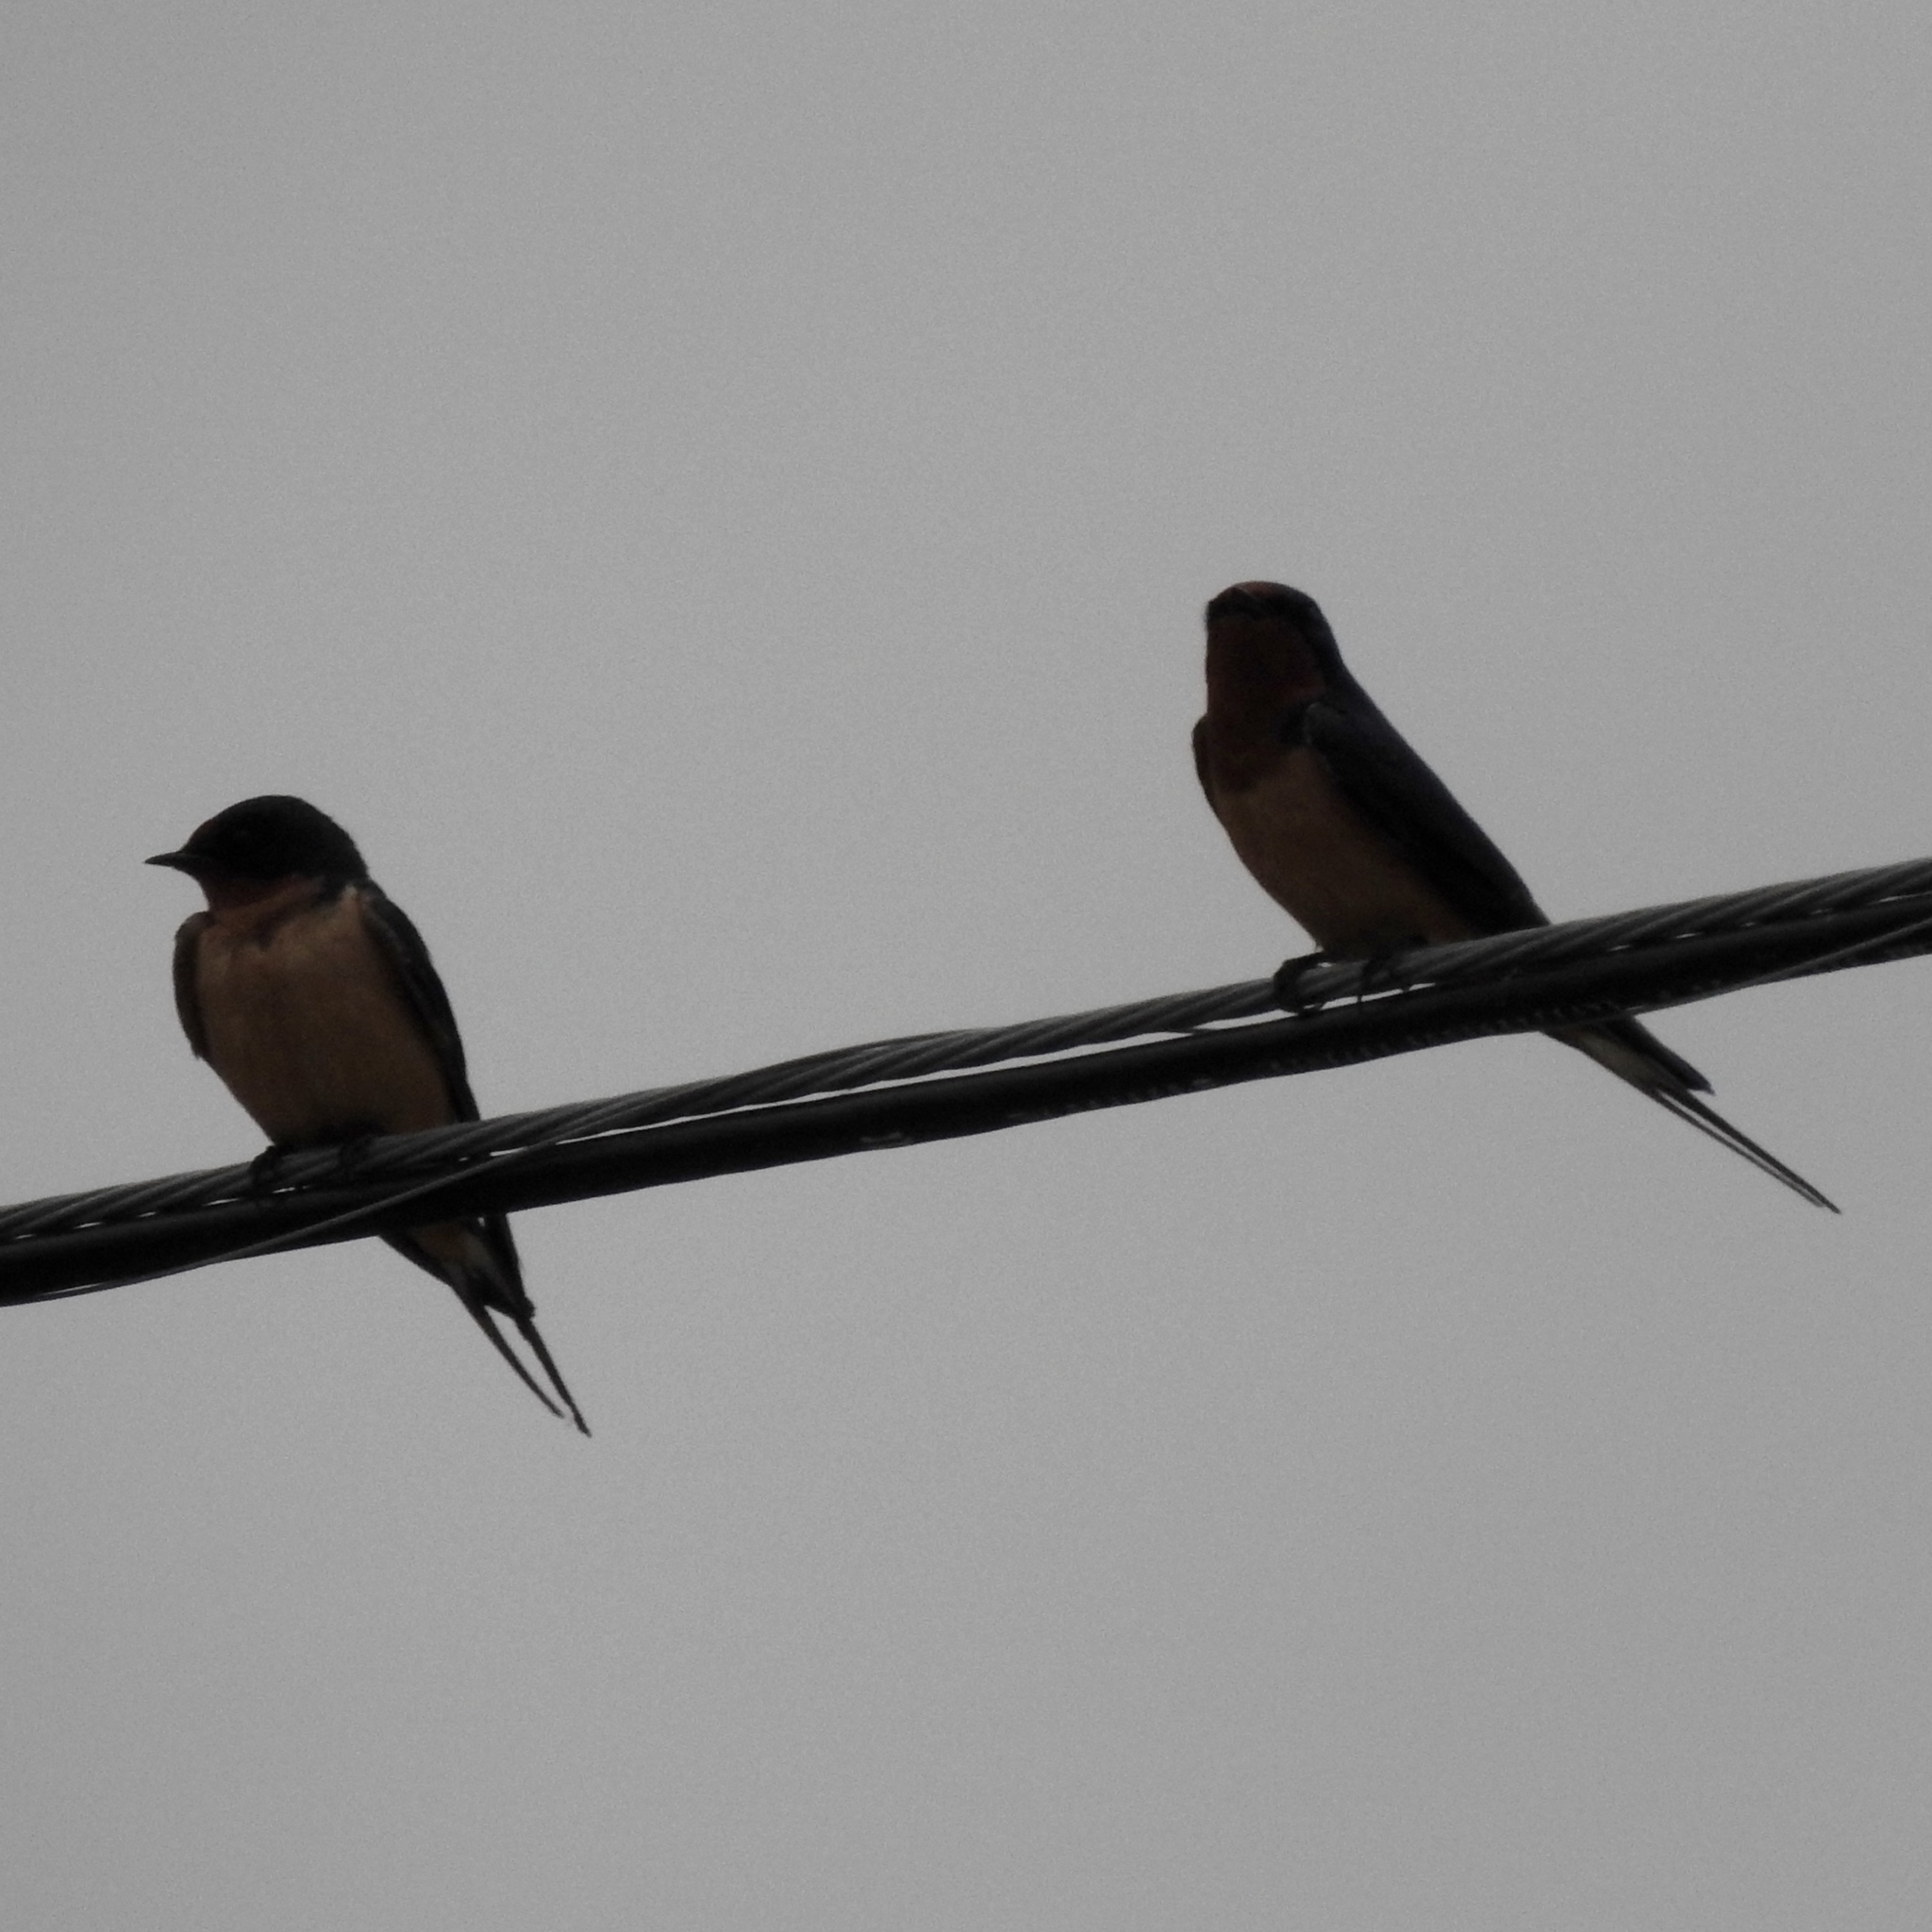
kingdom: Animalia
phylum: Chordata
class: Aves
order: Passeriformes
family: Hirundinidae
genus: Hirundo
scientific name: Hirundo rustica
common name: Barn swallow
